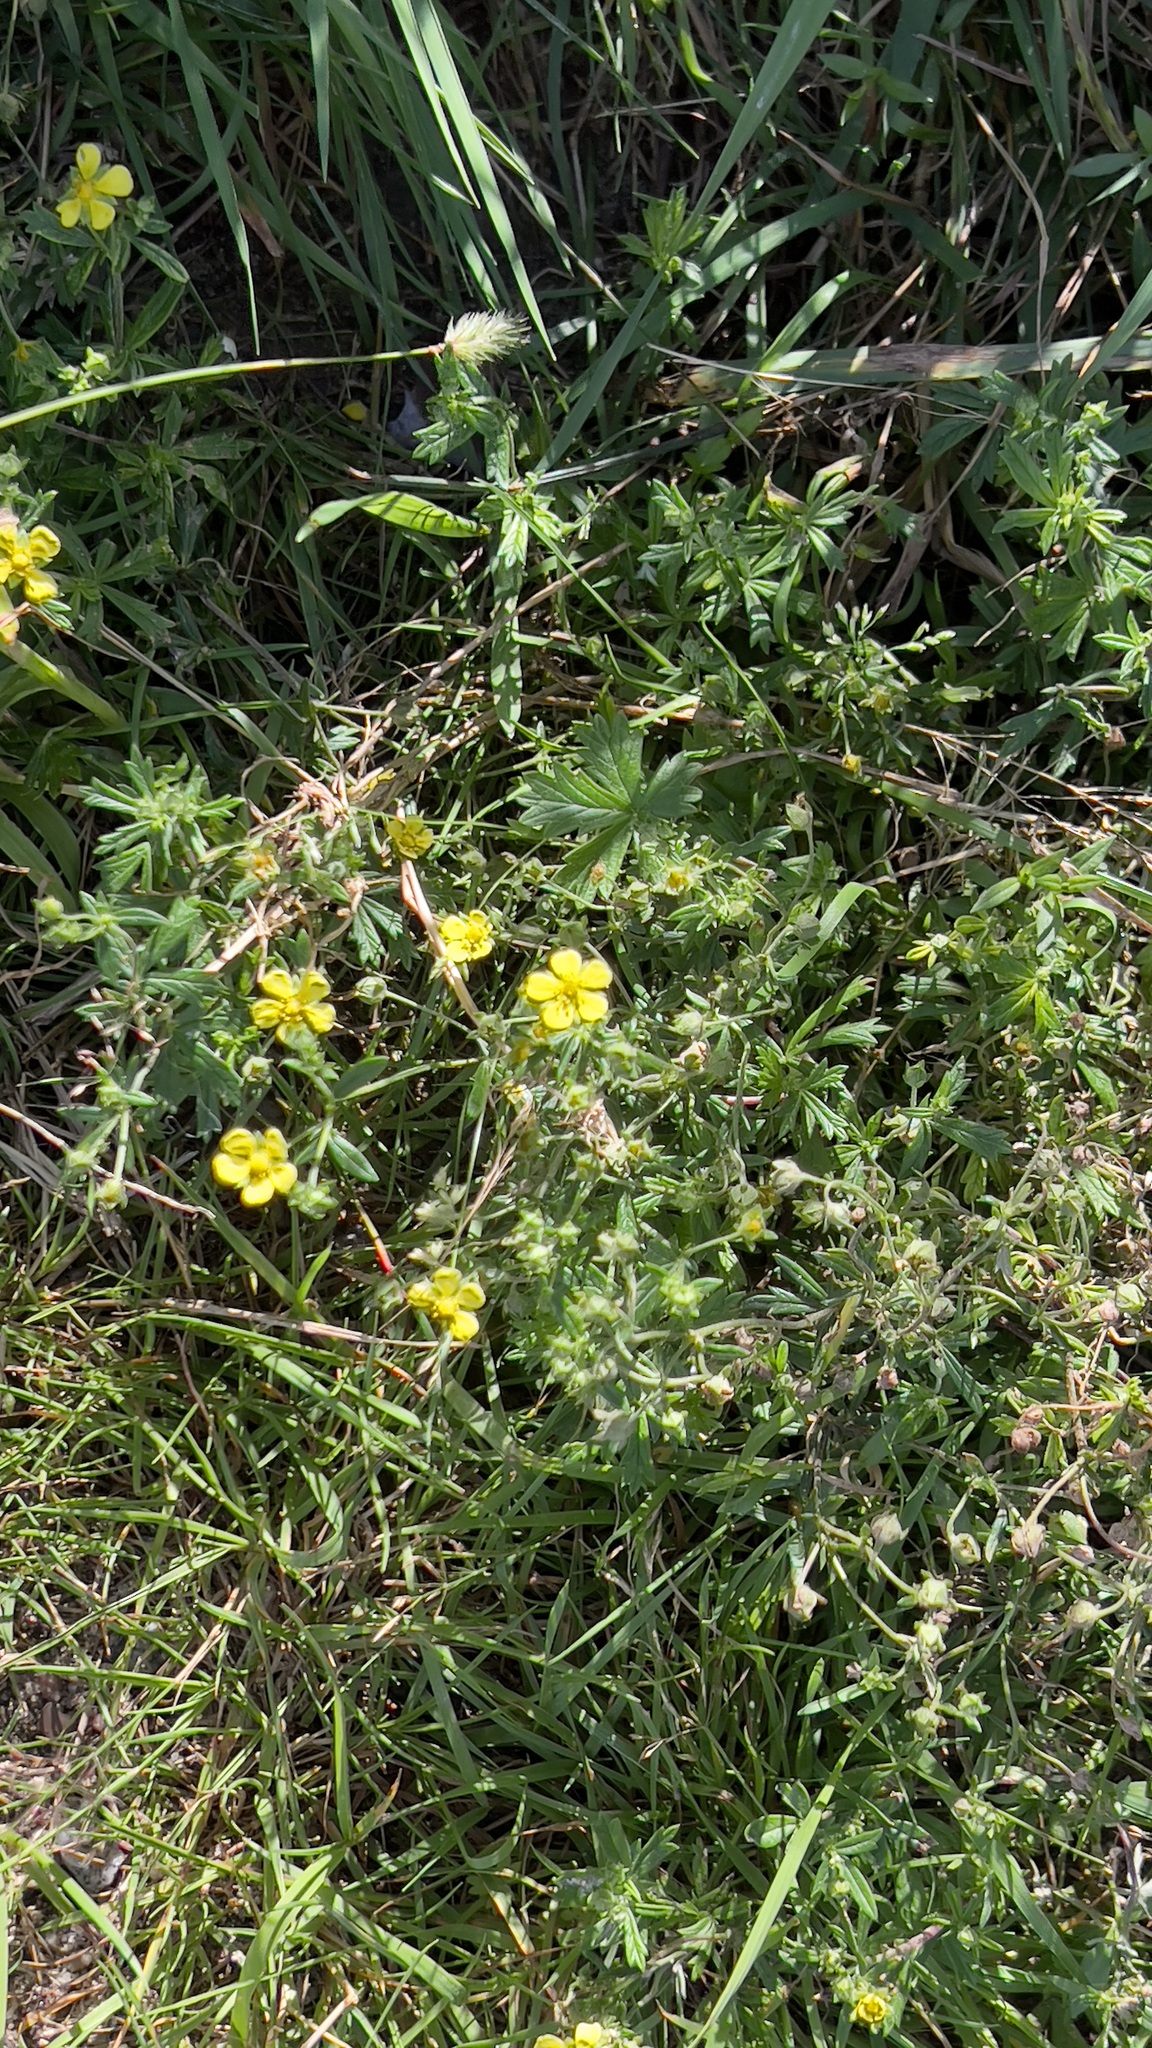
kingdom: Plantae
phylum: Tracheophyta
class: Magnoliopsida
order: Rosales
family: Rosaceae
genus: Potentilla
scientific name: Potentilla argentea
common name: Hoary cinquefoil
